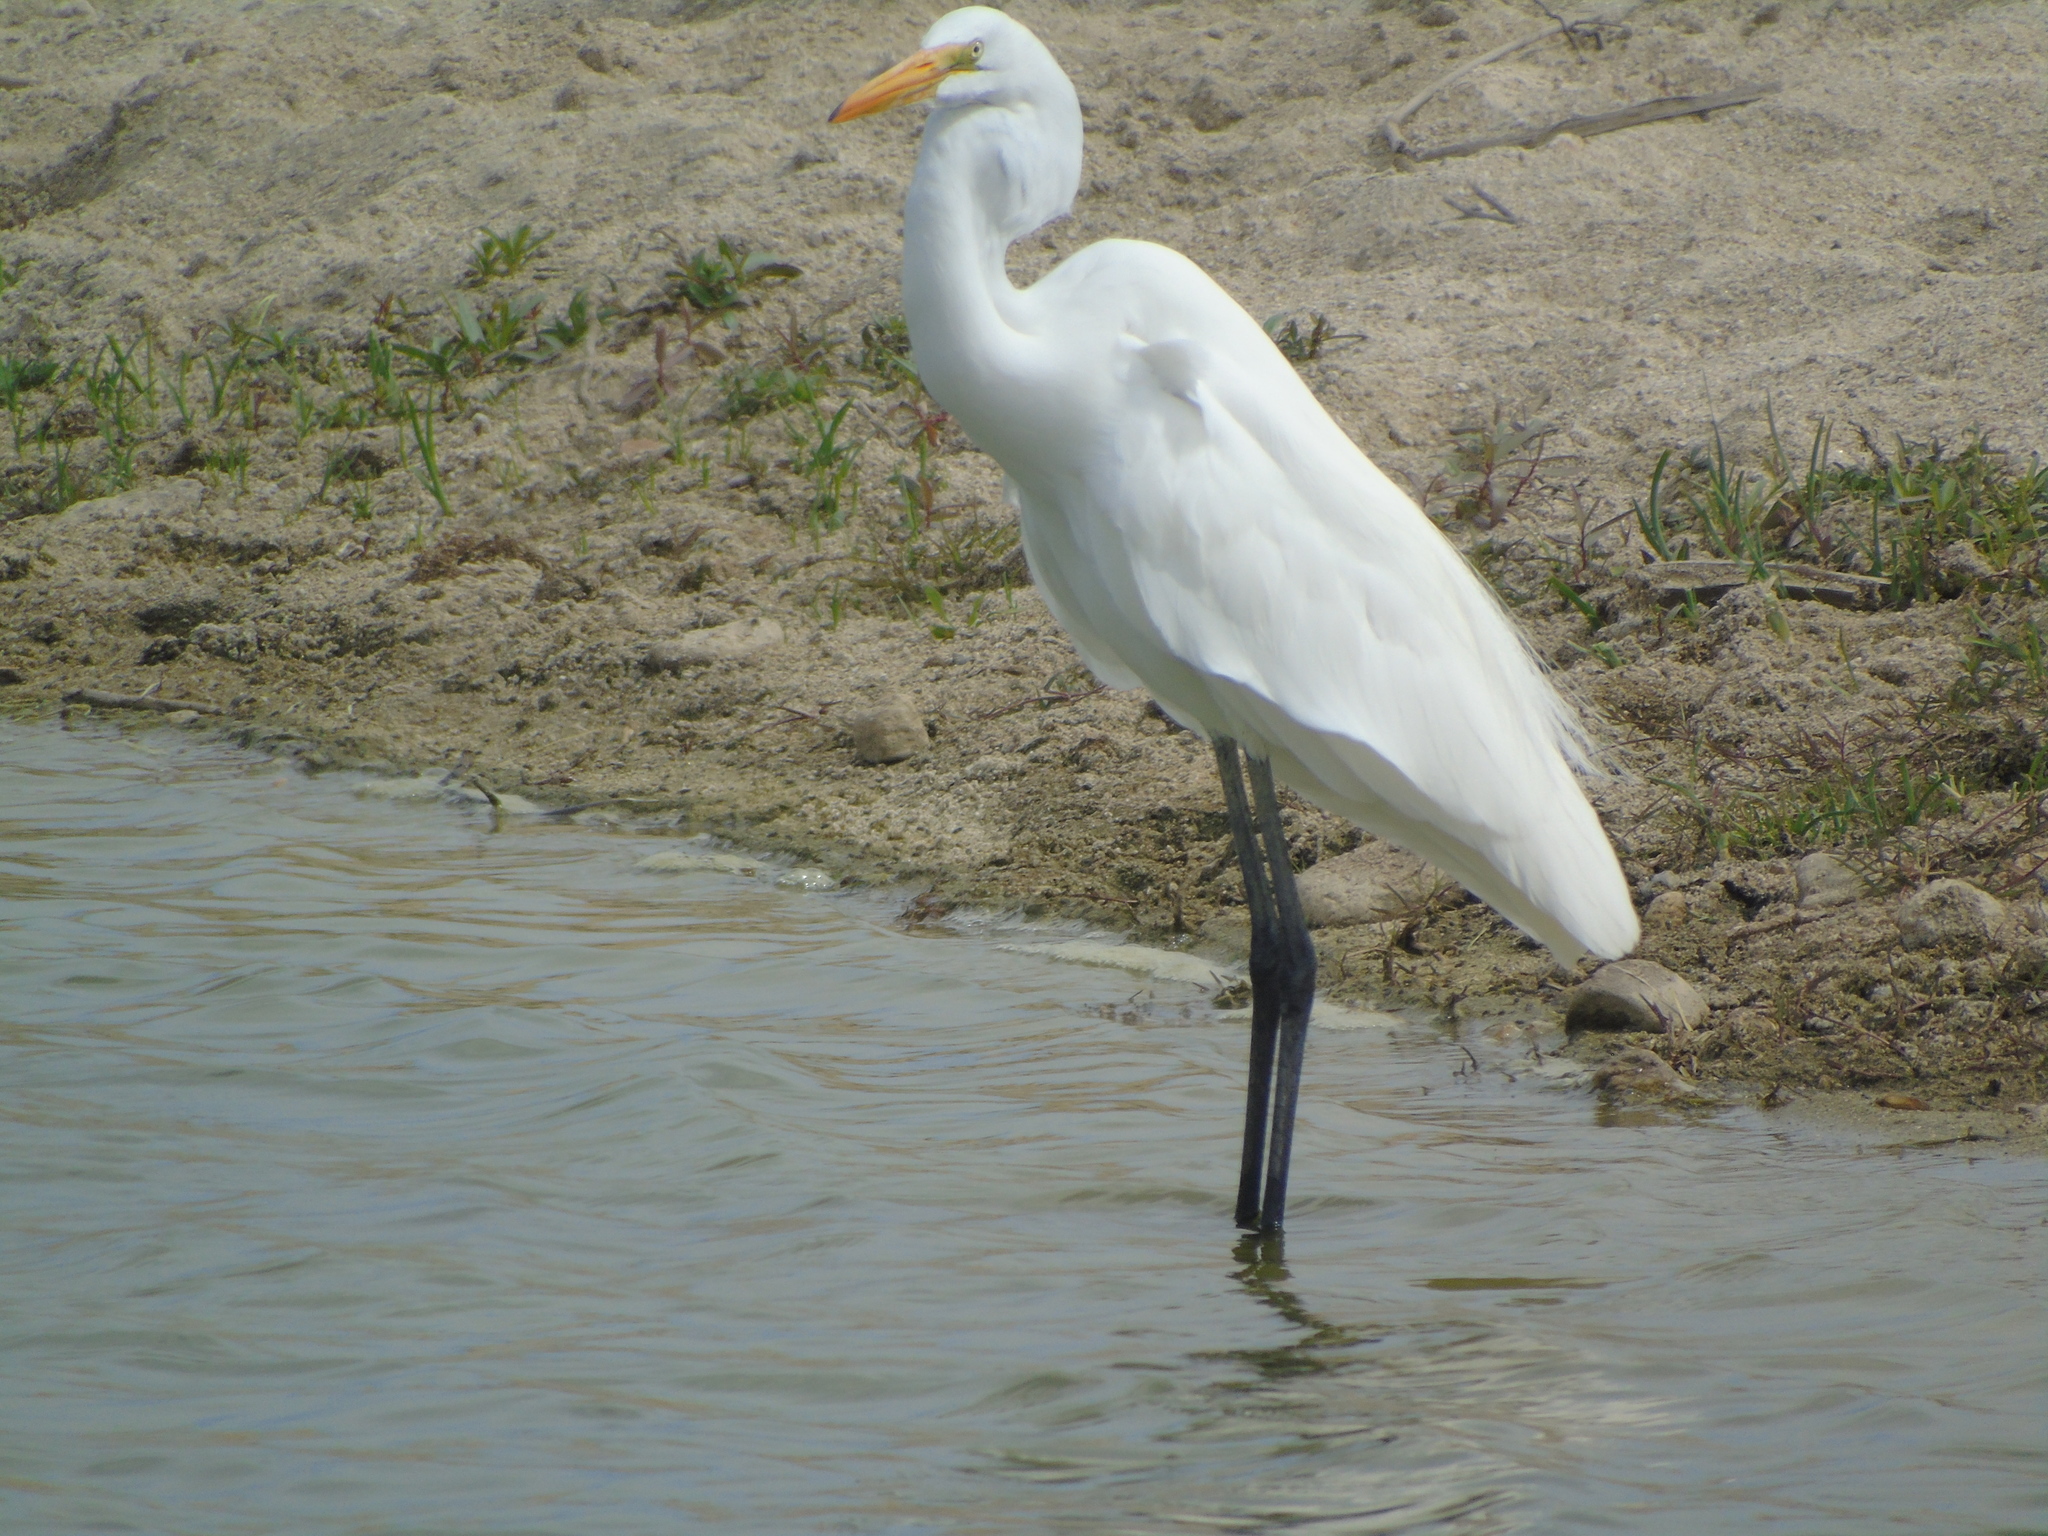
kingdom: Animalia
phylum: Chordata
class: Aves
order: Pelecaniformes
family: Ardeidae
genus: Ardea
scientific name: Ardea alba
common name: Great egret
